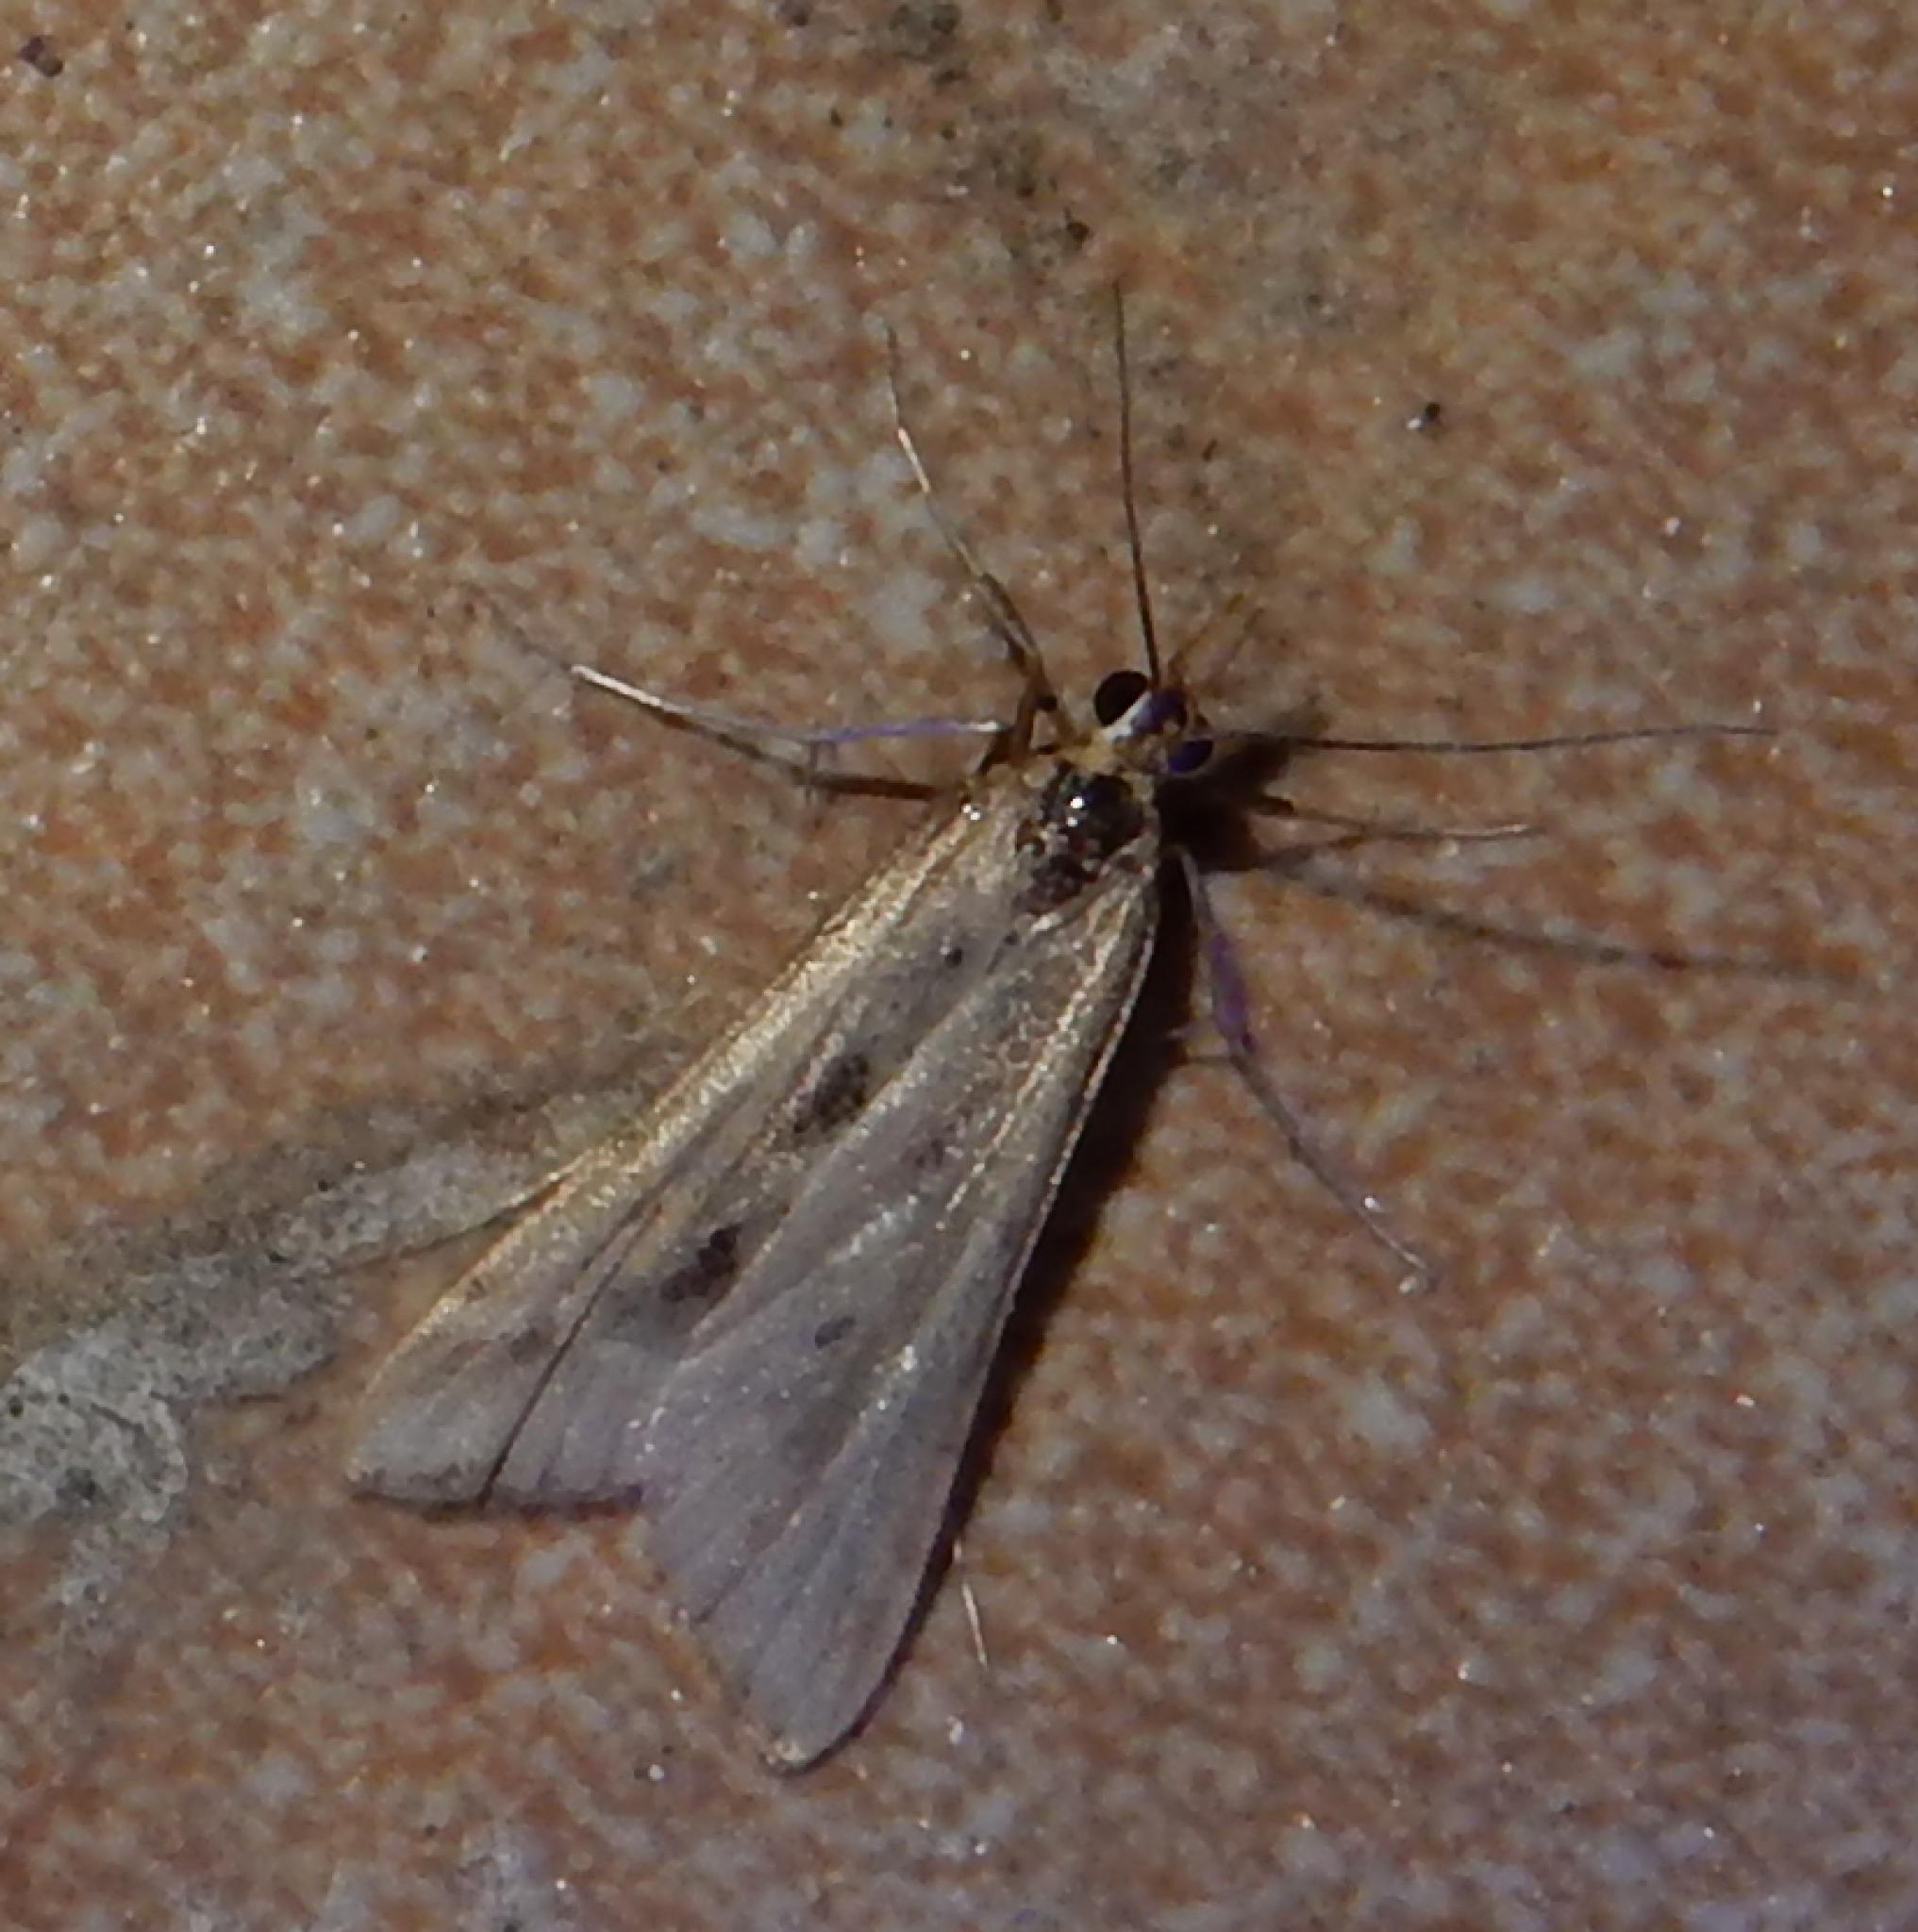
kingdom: Animalia
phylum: Arthropoda
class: Insecta
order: Lepidoptera
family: Crambidae
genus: Diasemia
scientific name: Diasemia monostigma
